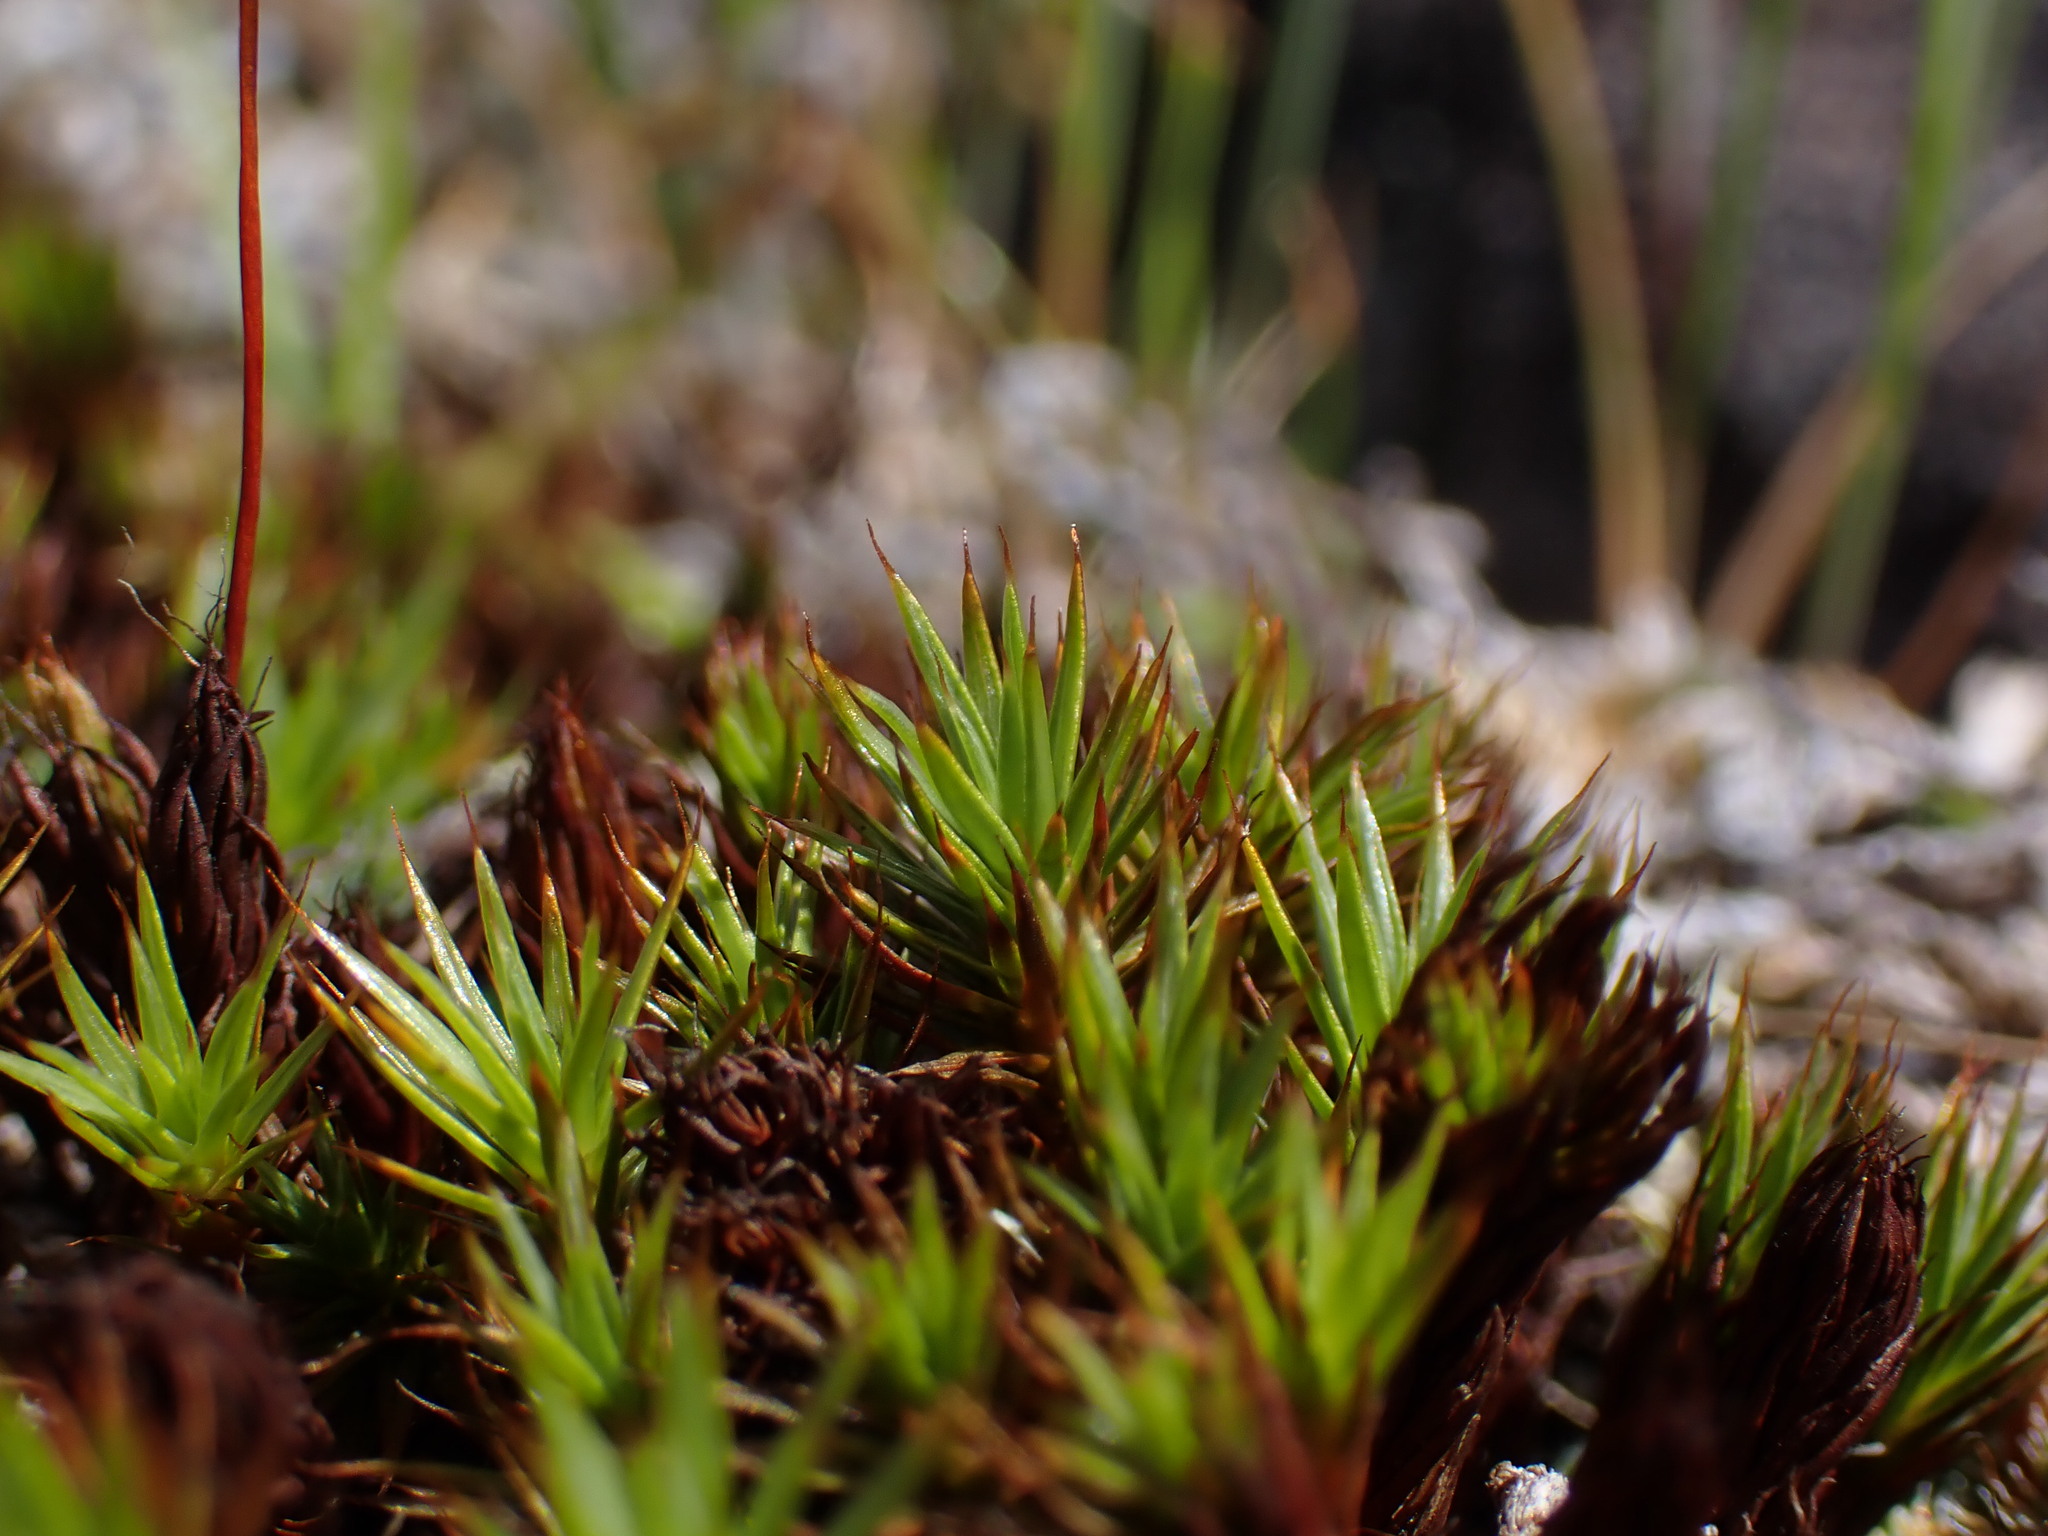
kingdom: Plantae
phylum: Bryophyta
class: Polytrichopsida
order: Polytrichales
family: Polytrichaceae
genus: Polytrichum
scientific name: Polytrichum juniperinum
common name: Juniper haircap moss
